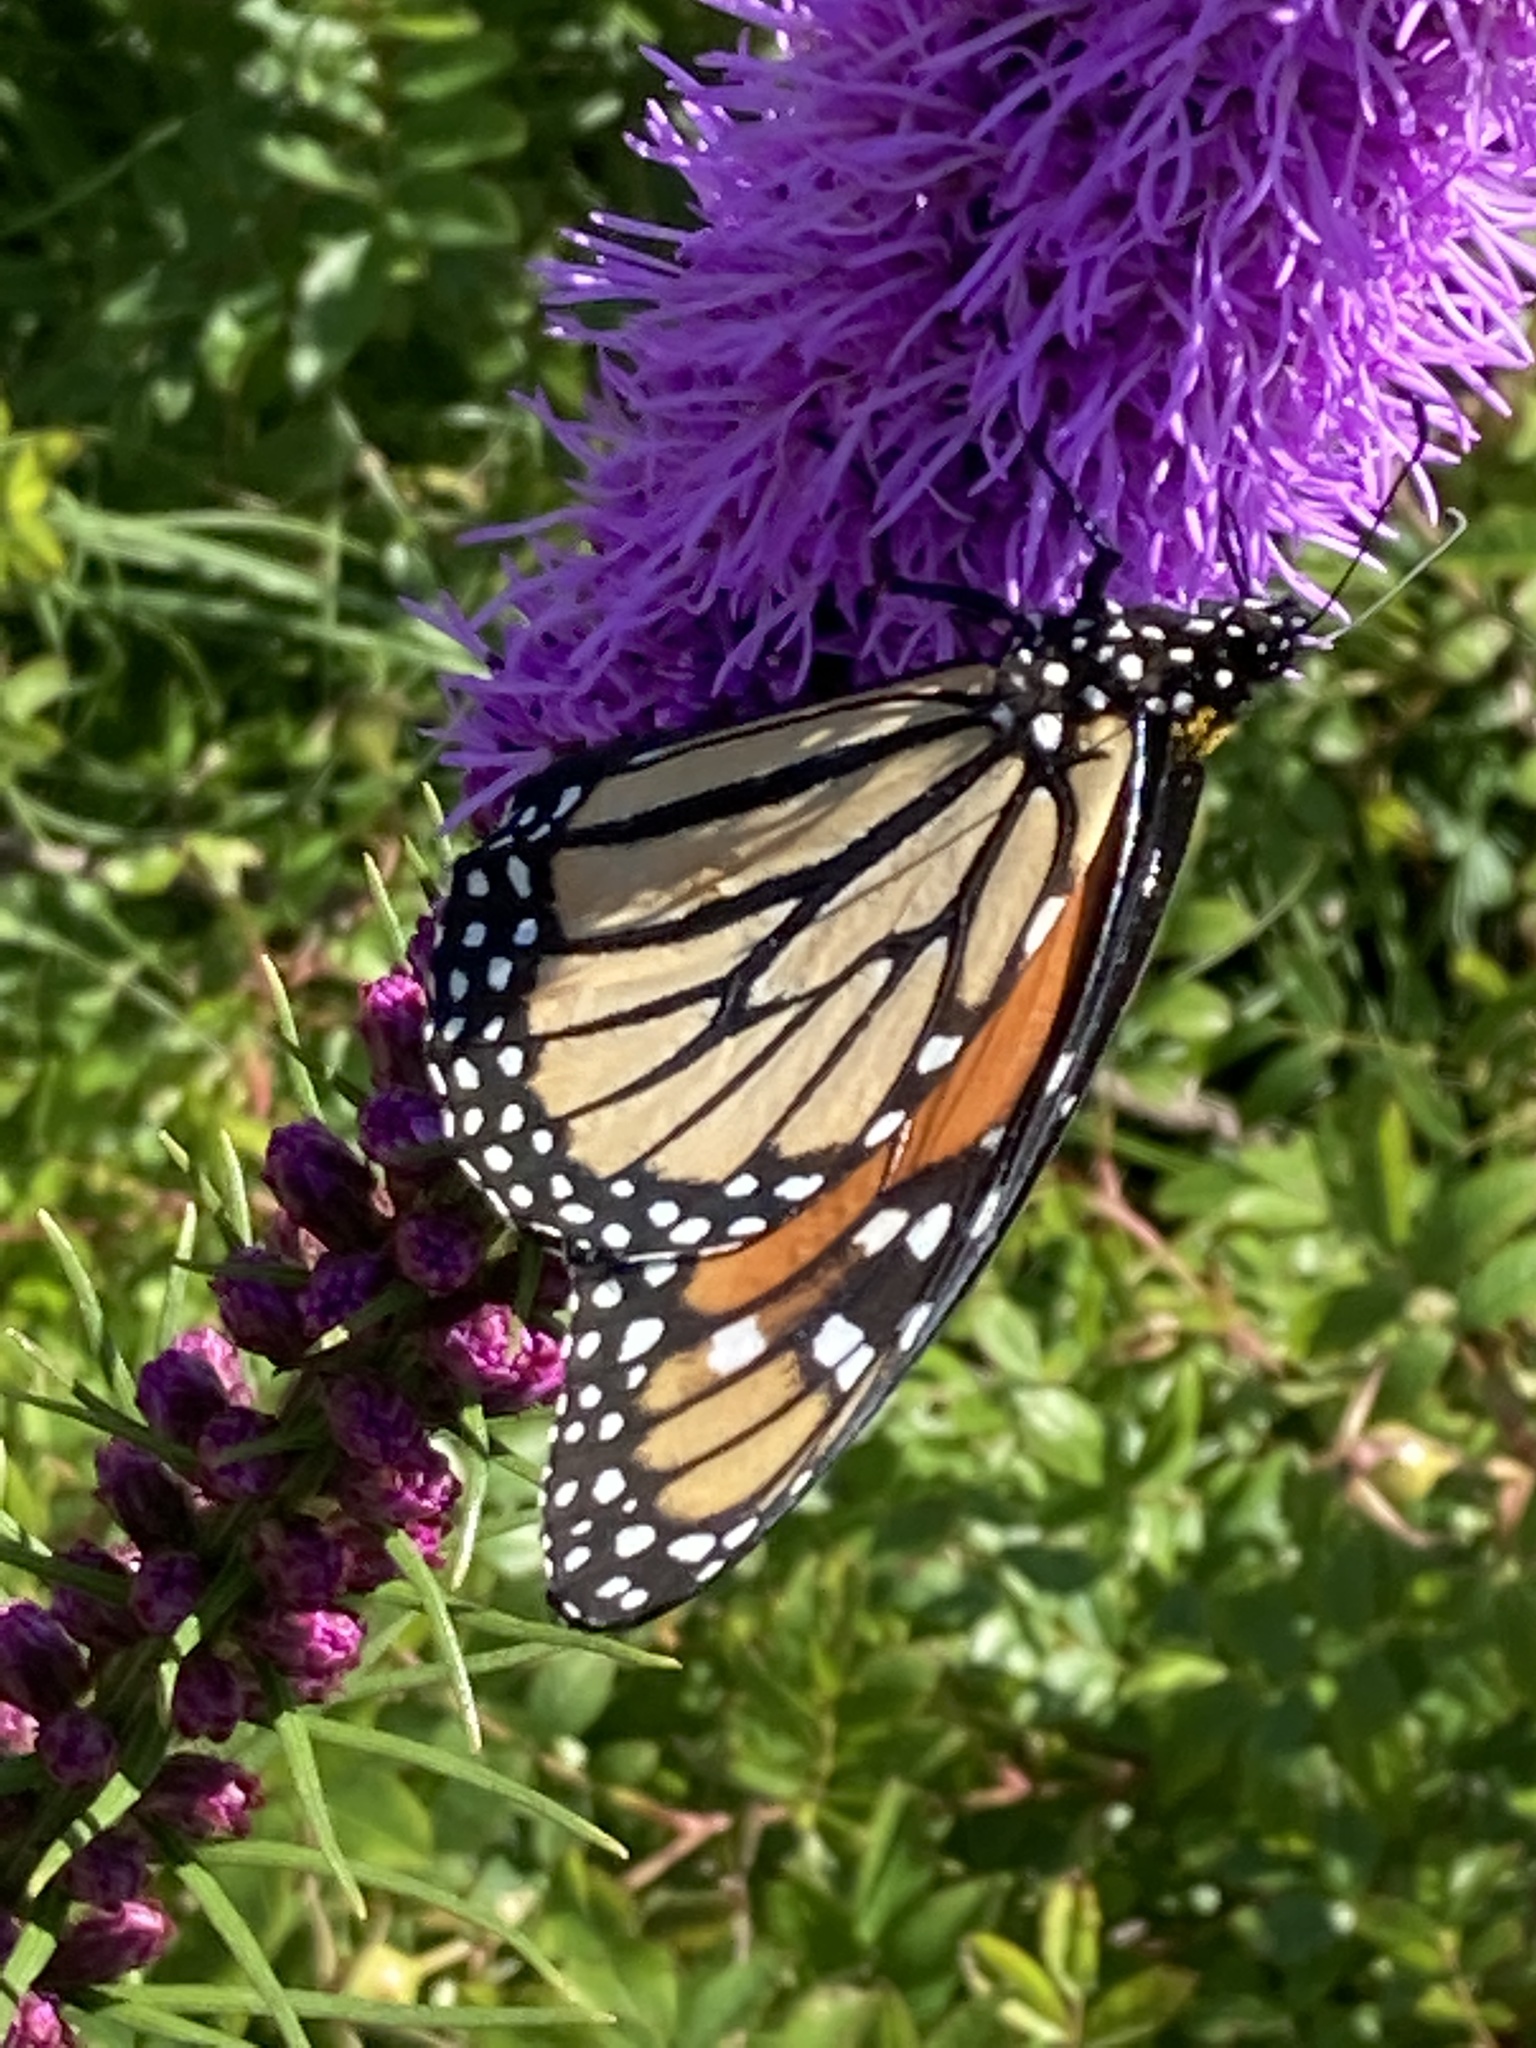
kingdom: Animalia
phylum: Arthropoda
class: Insecta
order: Lepidoptera
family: Nymphalidae
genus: Danaus
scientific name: Danaus plexippus
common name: Monarch
